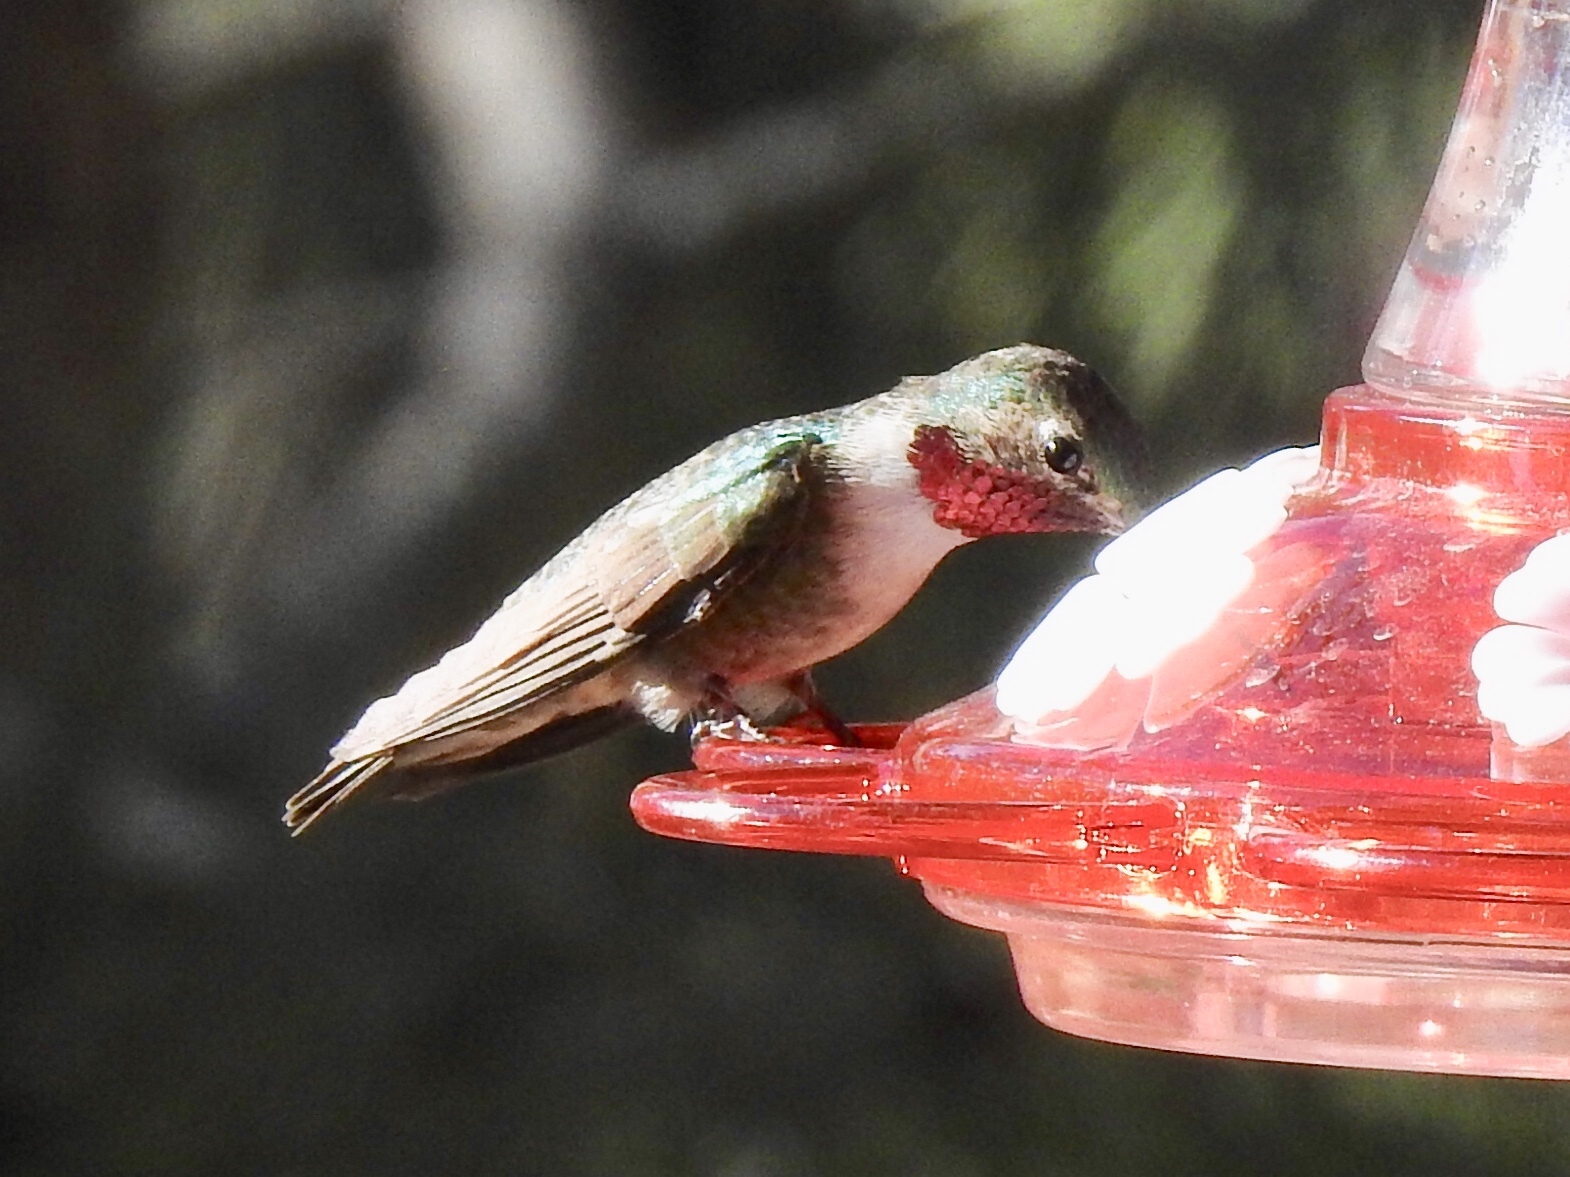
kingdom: Animalia
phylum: Chordata
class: Aves
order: Apodiformes
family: Trochilidae
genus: Selasphorus
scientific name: Selasphorus platycercus
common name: Broad-tailed hummingbird
